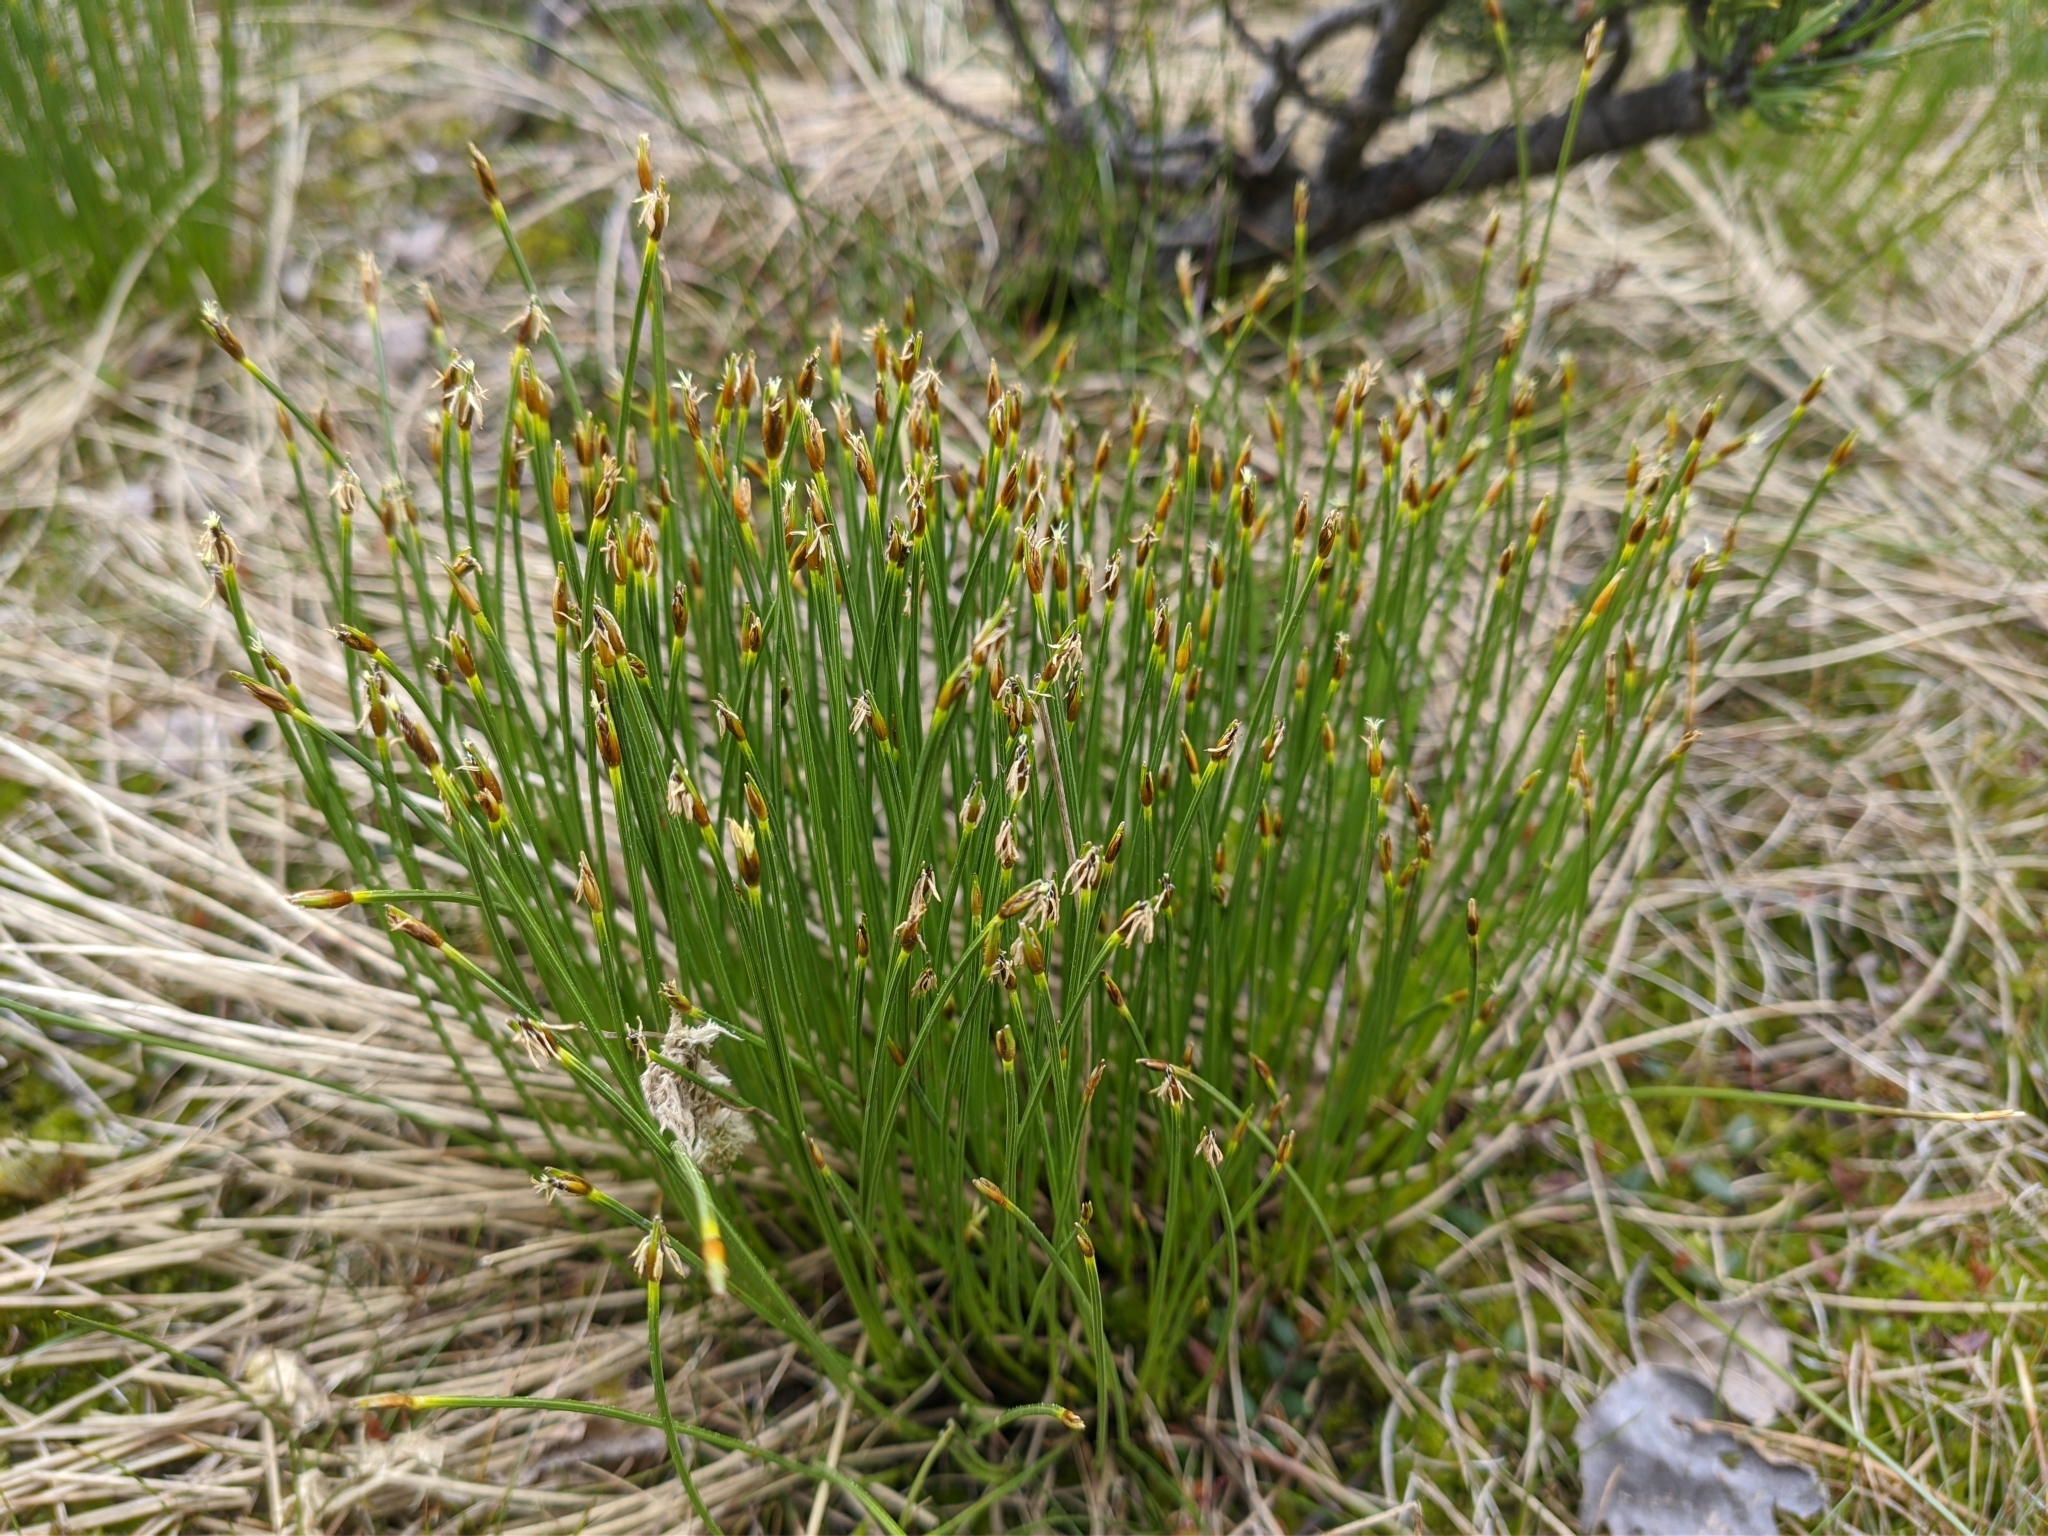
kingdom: Plantae
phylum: Tracheophyta
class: Liliopsida
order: Poales
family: Cyperaceae
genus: Trichophorum
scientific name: Trichophorum cespitosum
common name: Cespitose bulrush
